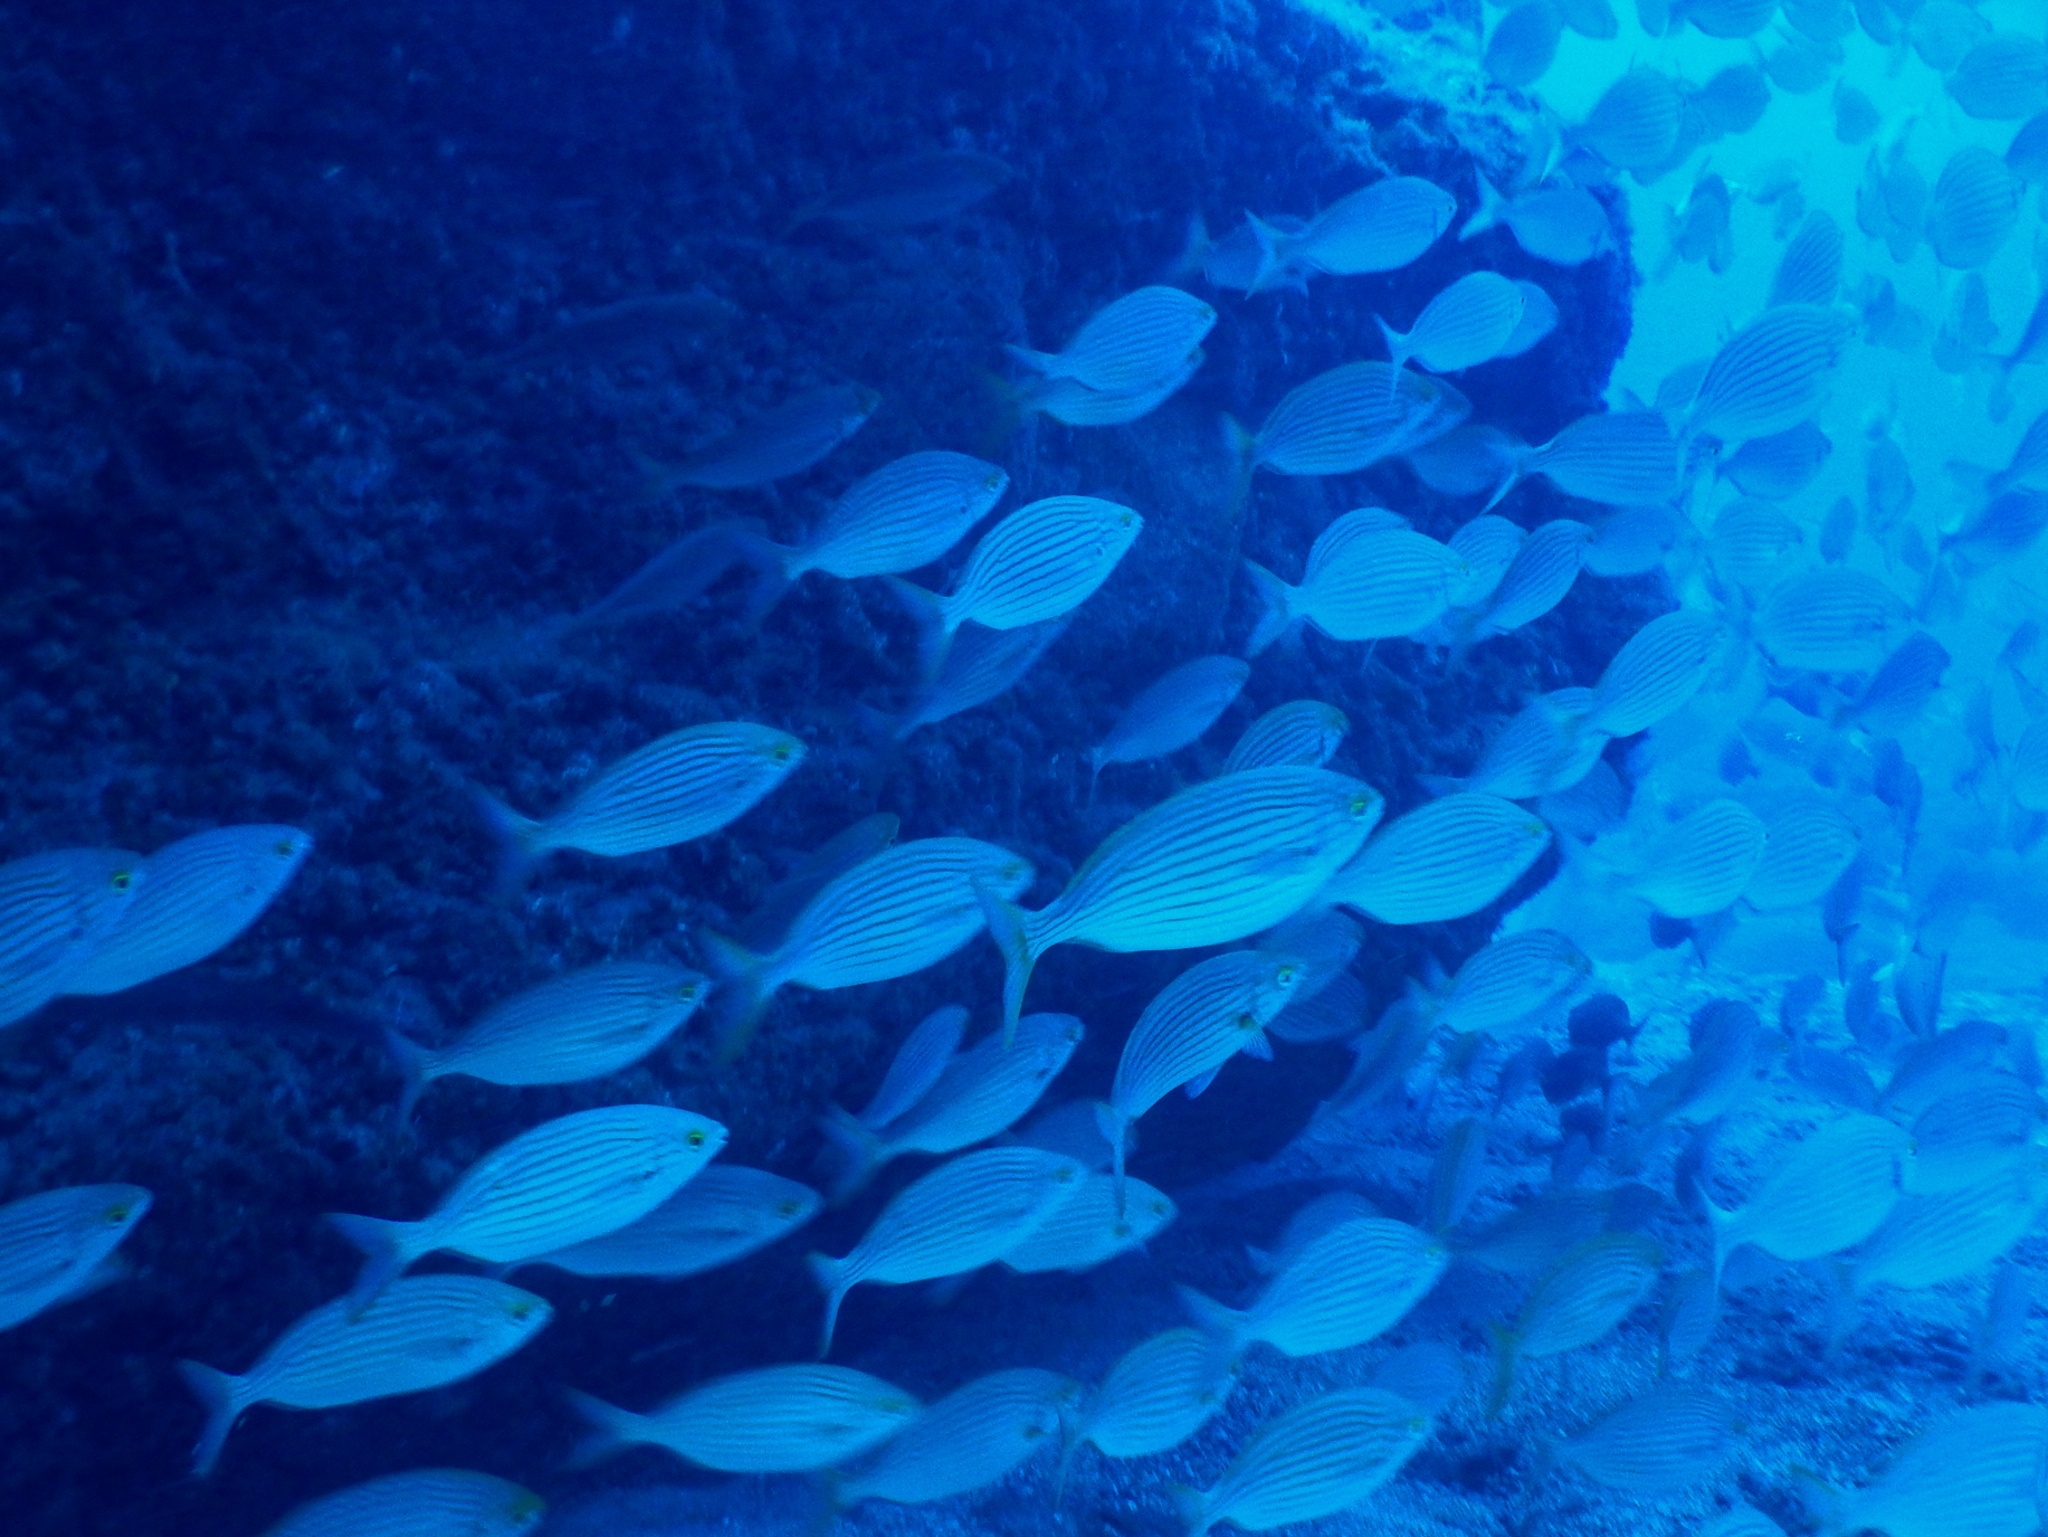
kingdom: Animalia
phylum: Chordata
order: Perciformes
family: Sparidae
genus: Sarpa
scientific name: Sarpa salpa
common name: Salema
